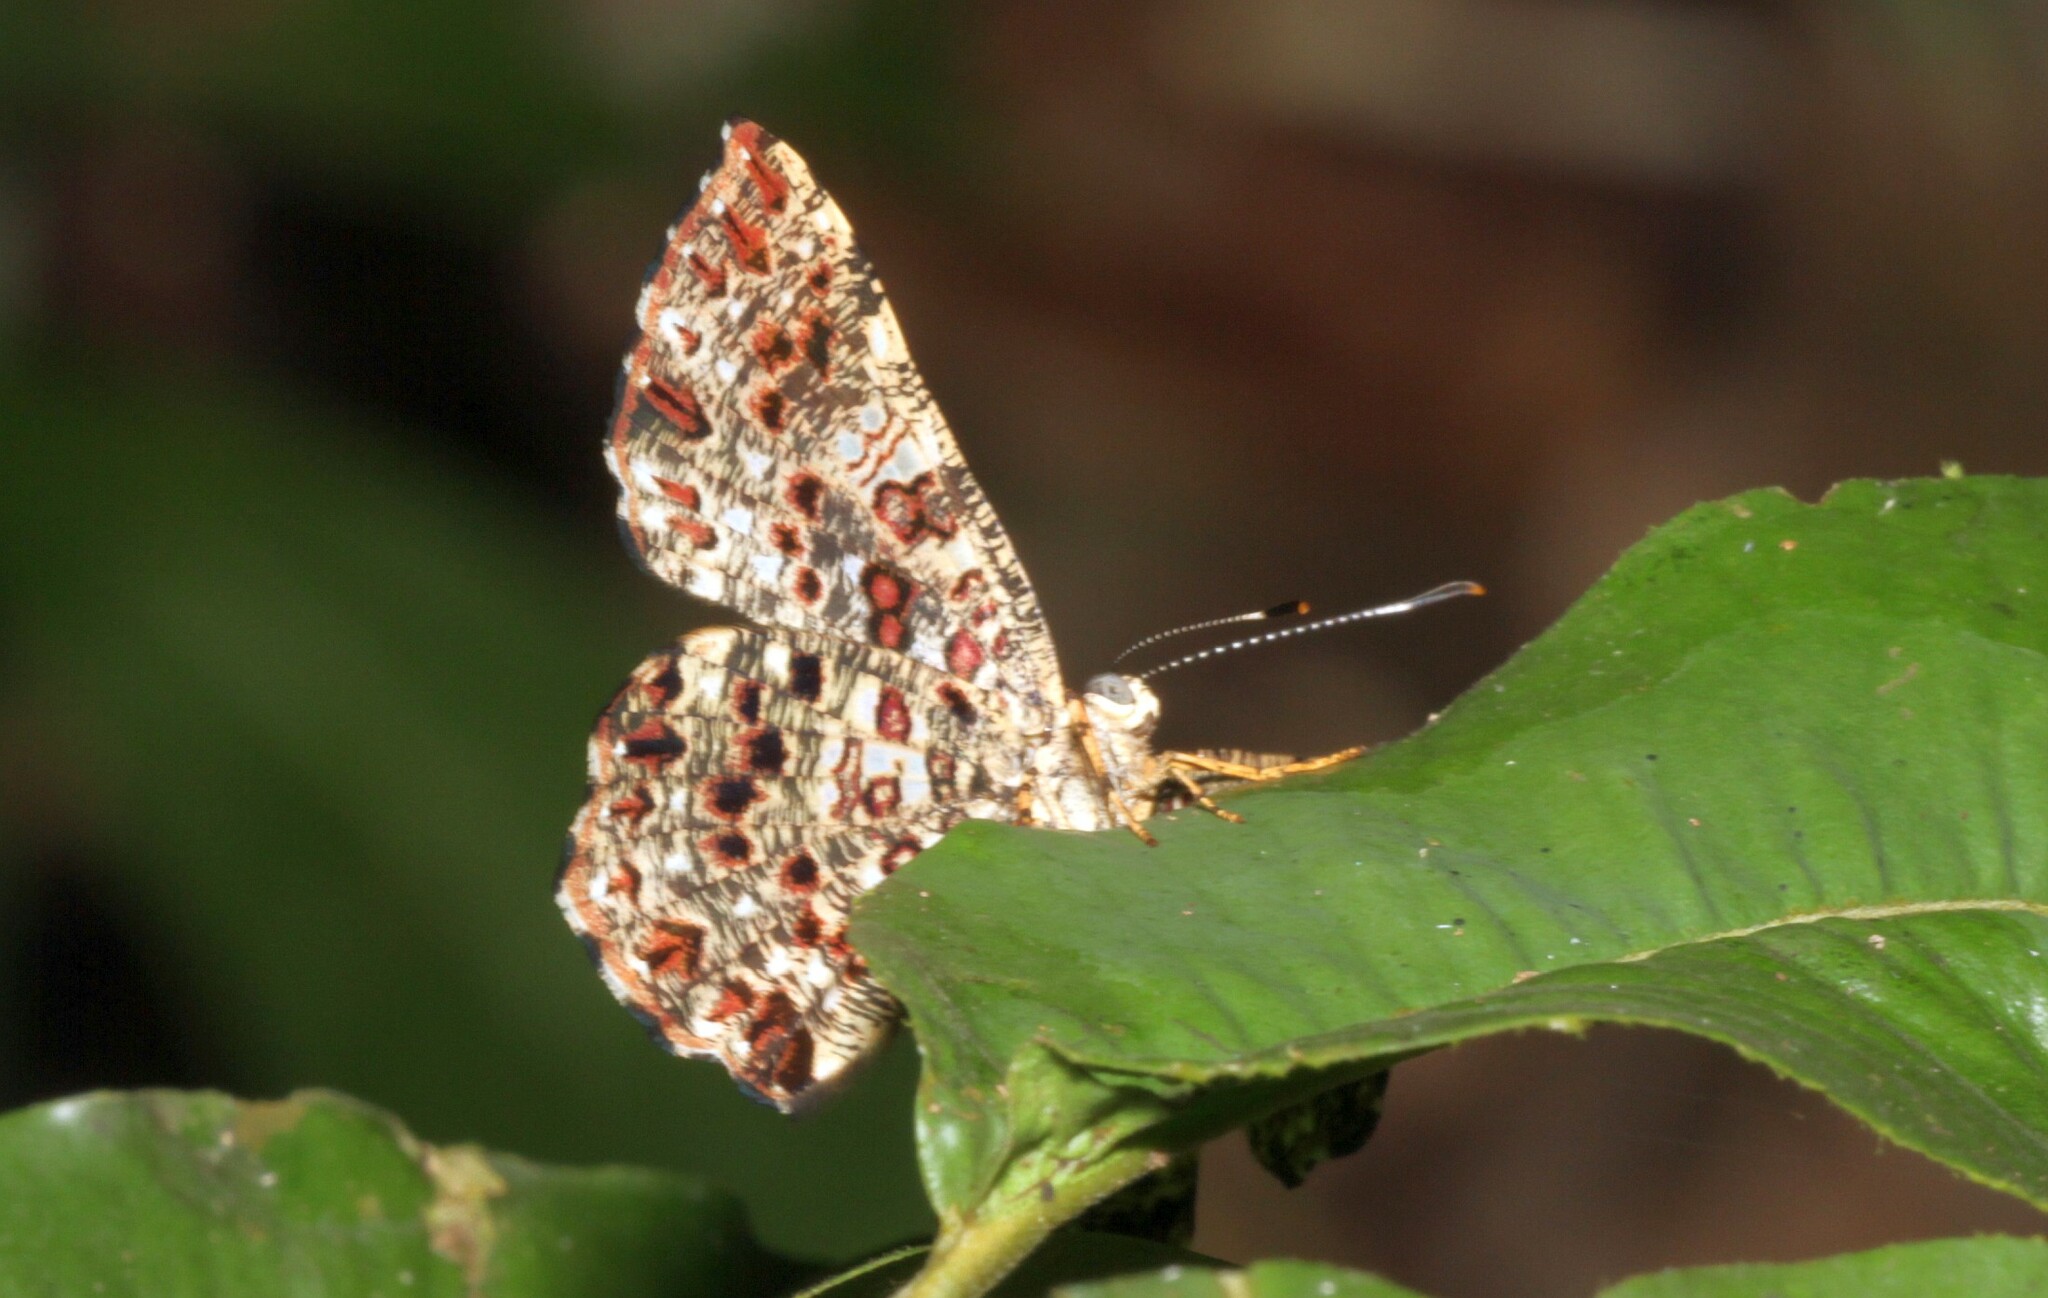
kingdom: Animalia
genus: Calydna
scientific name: Calydna
